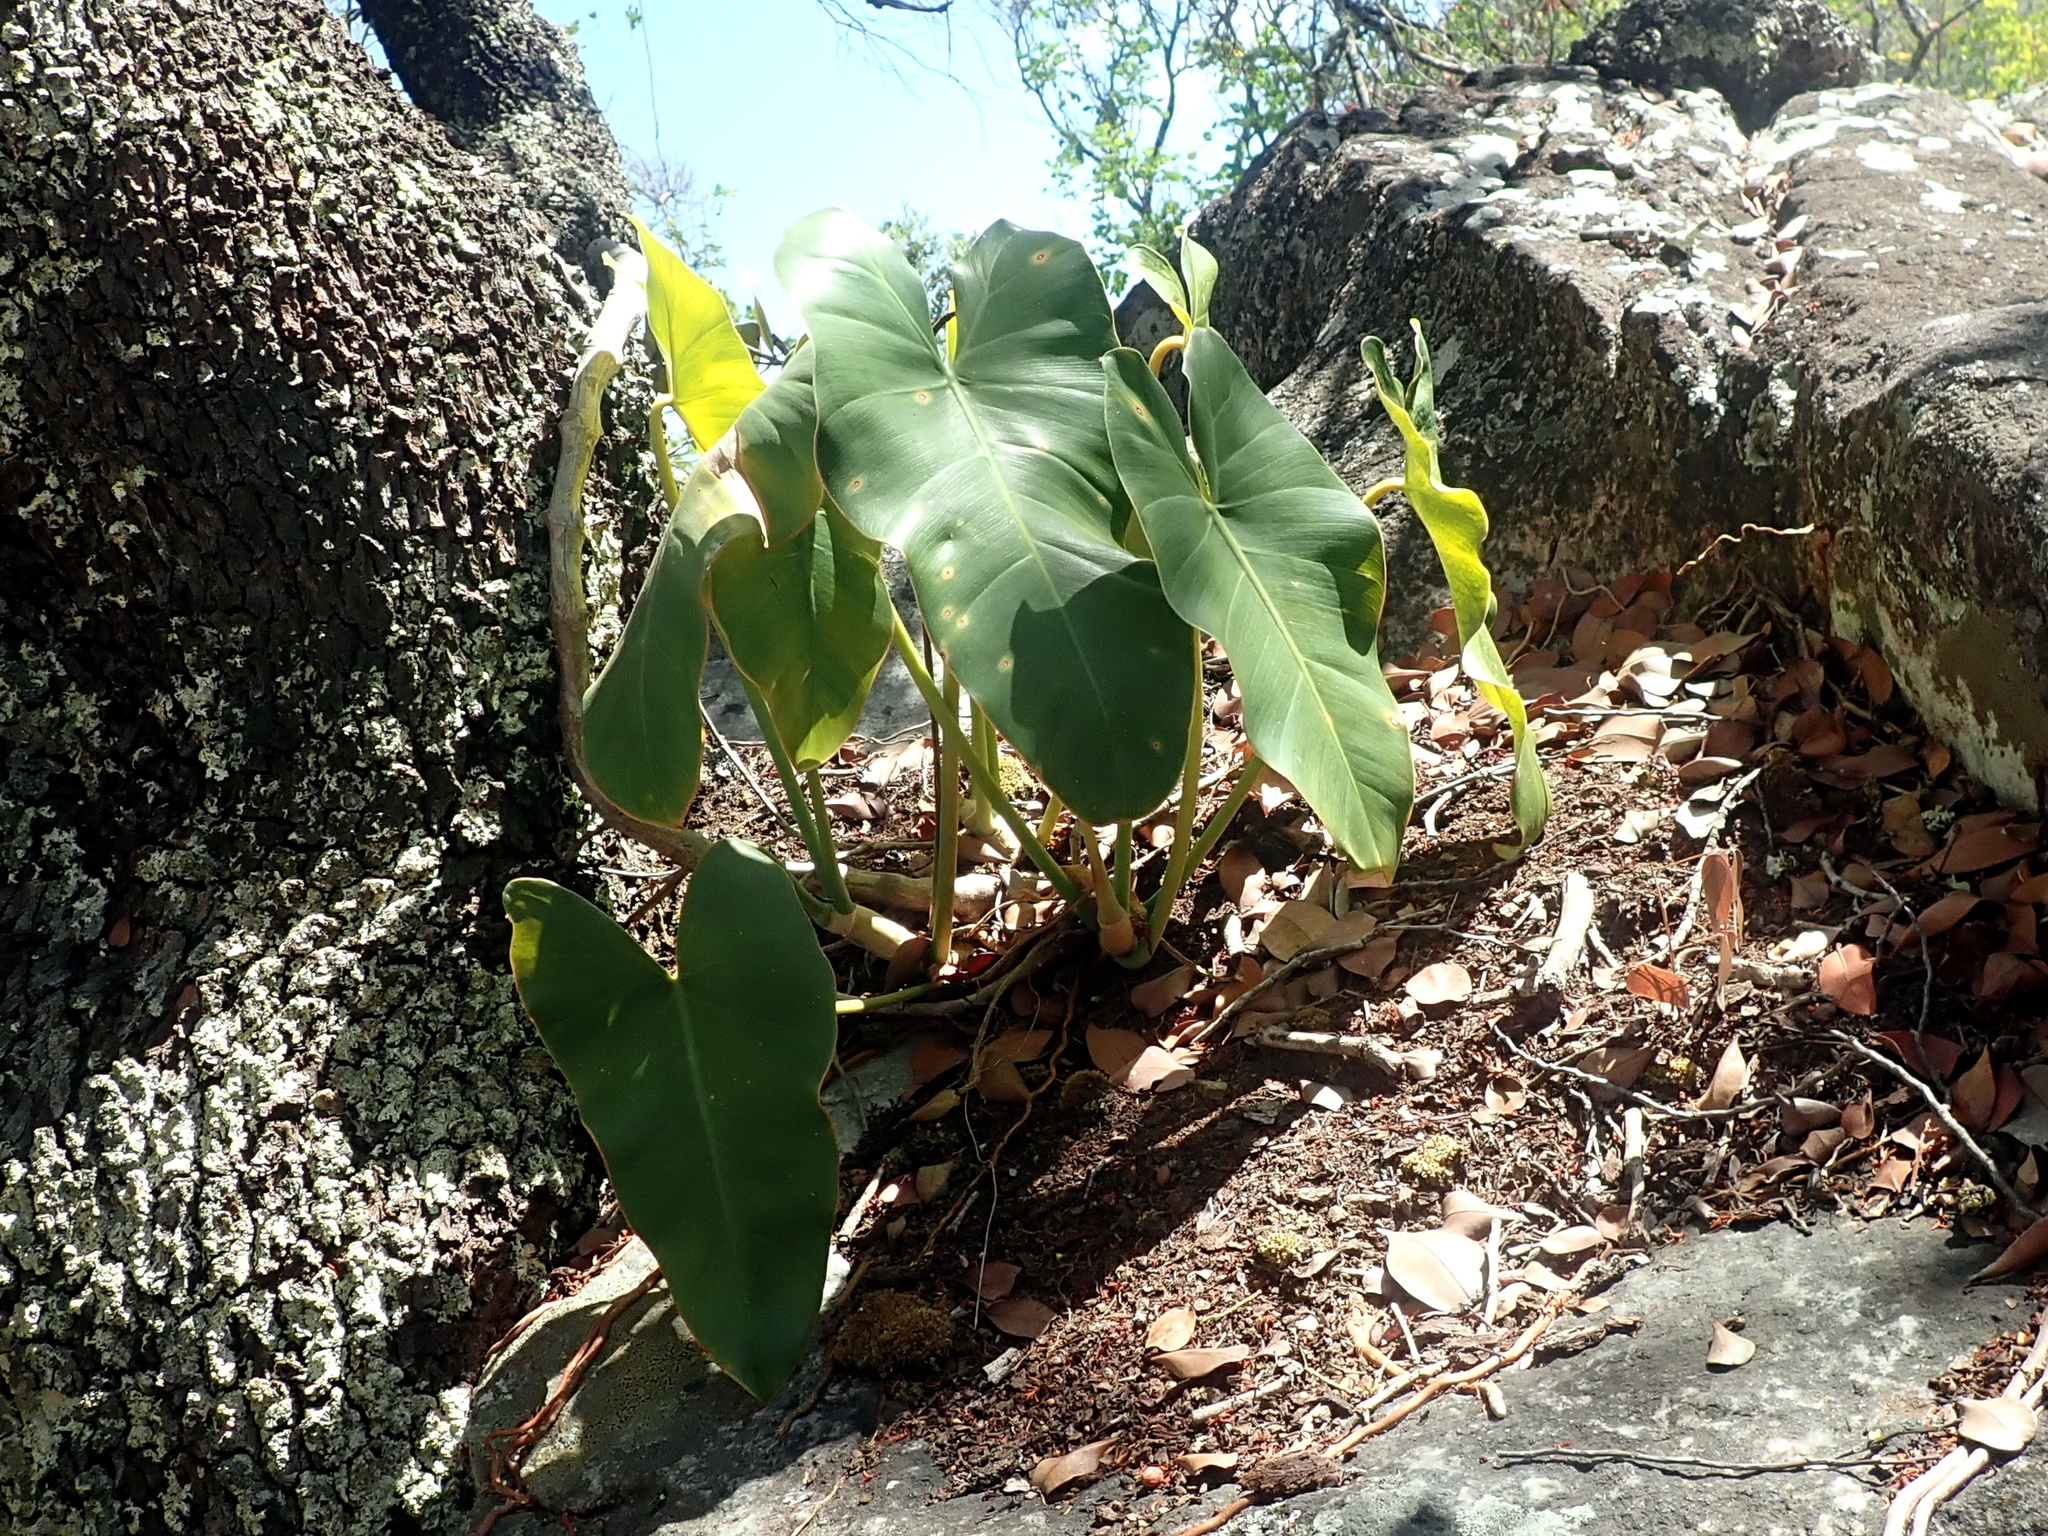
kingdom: Plantae
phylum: Tracheophyta
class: Liliopsida
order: Alismatales
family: Araceae
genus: Philodendron
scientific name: Philodendron wullschlaegelii
